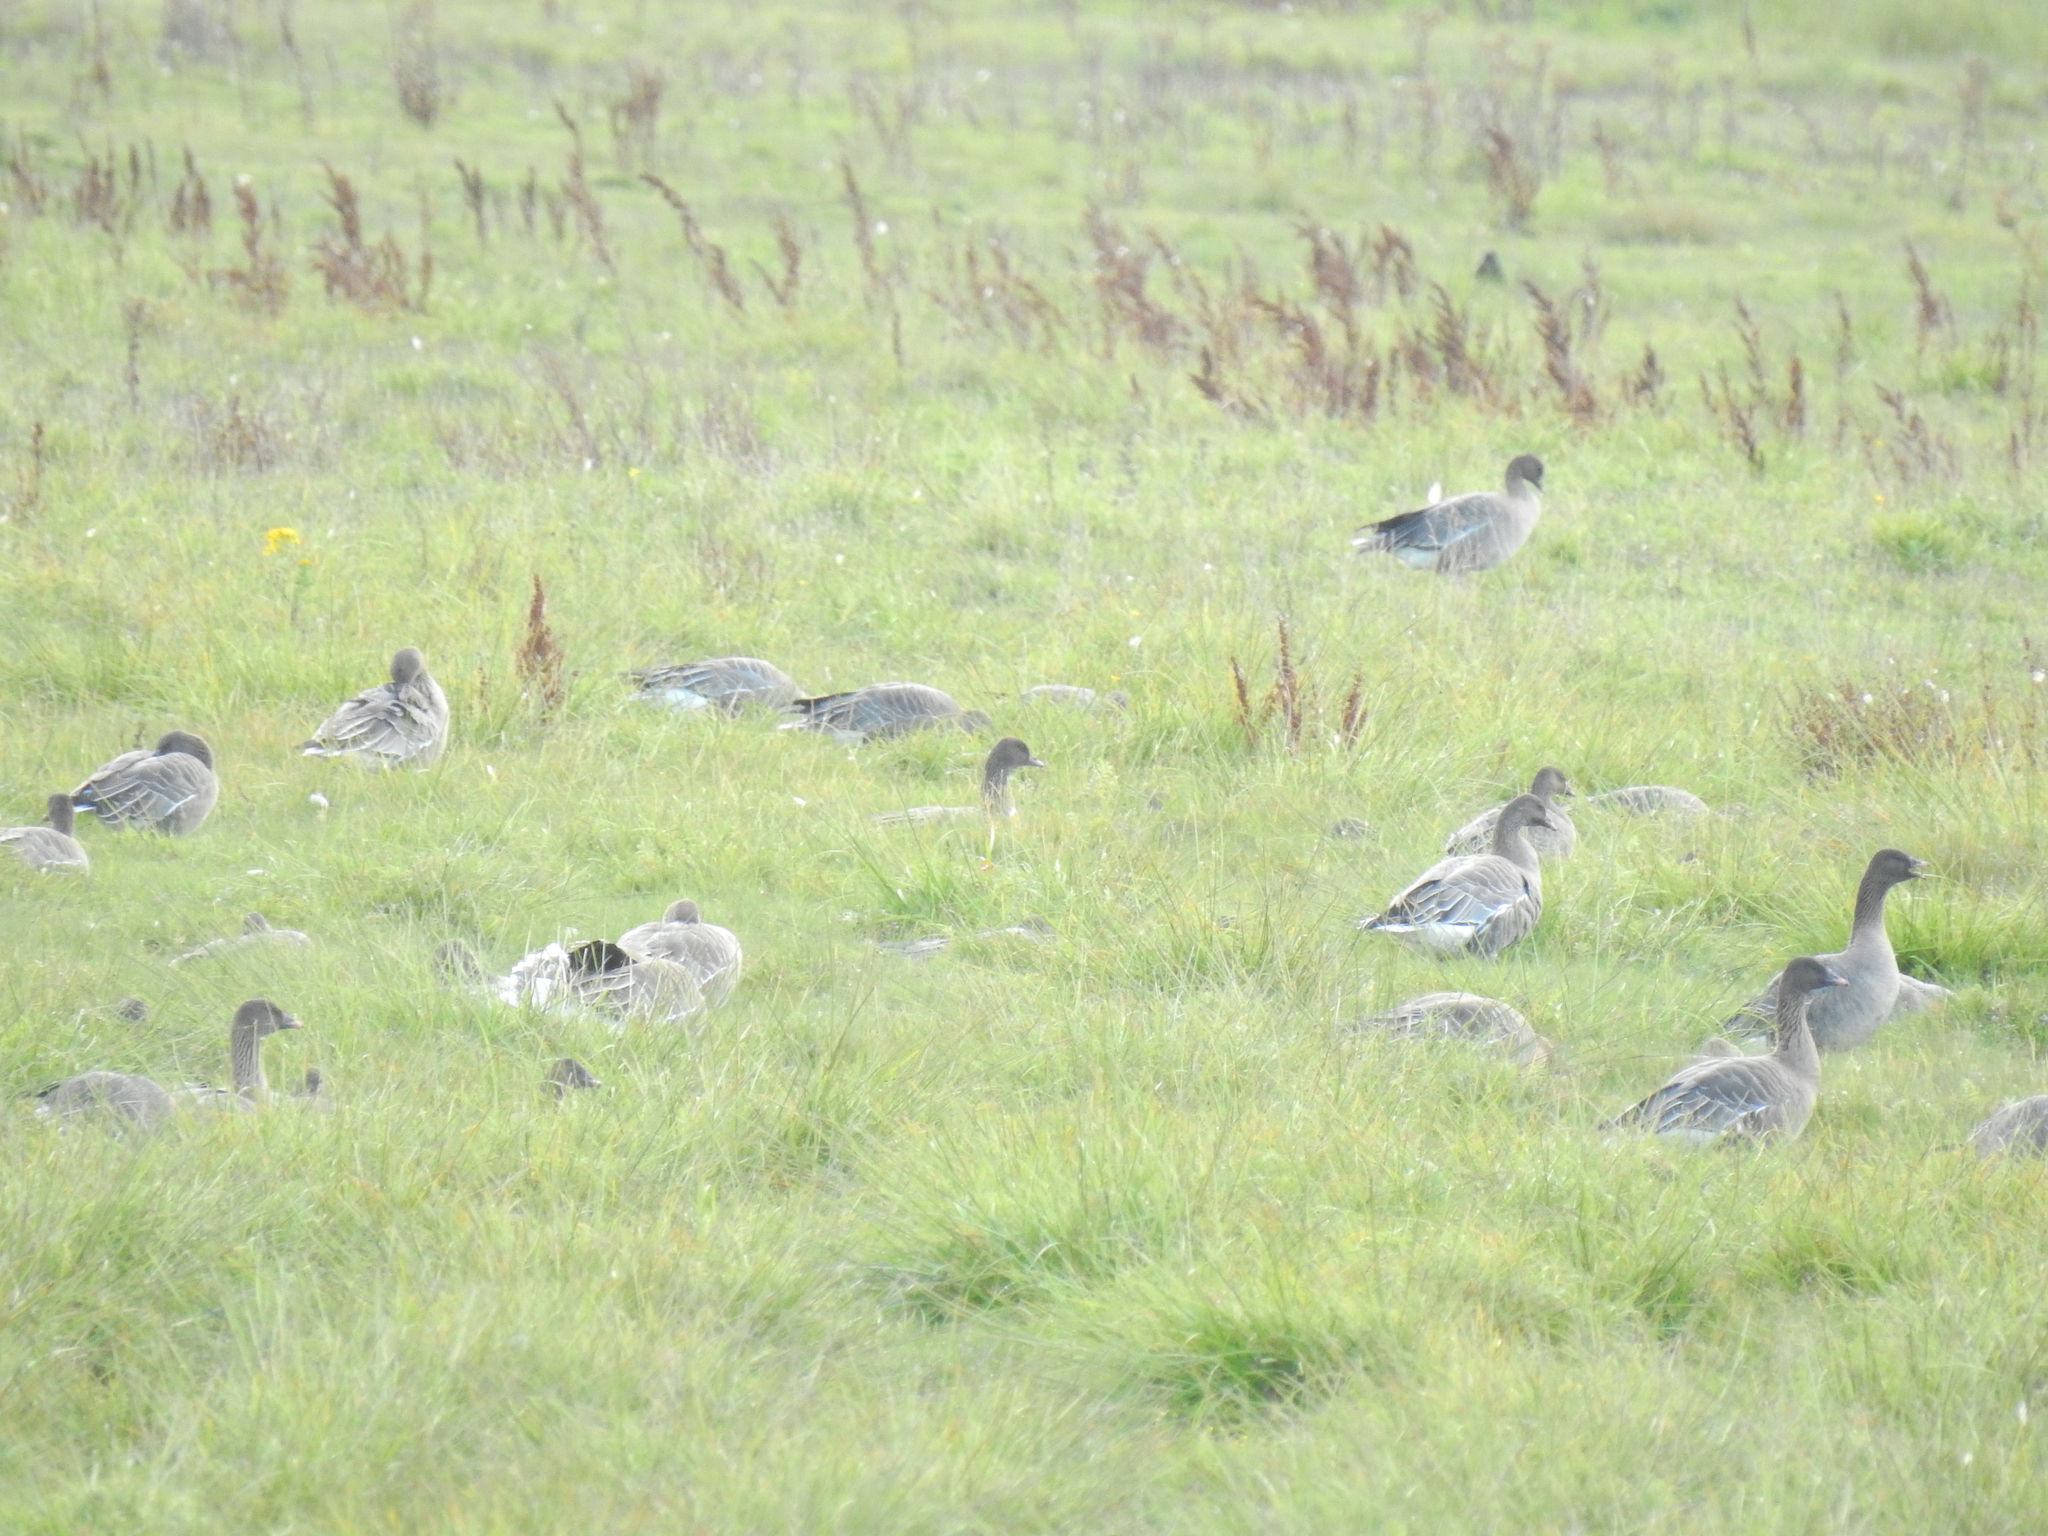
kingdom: Animalia
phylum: Chordata
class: Aves
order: Anseriformes
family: Anatidae
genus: Anser
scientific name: Anser brachyrhynchus
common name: Pink-footed goose
